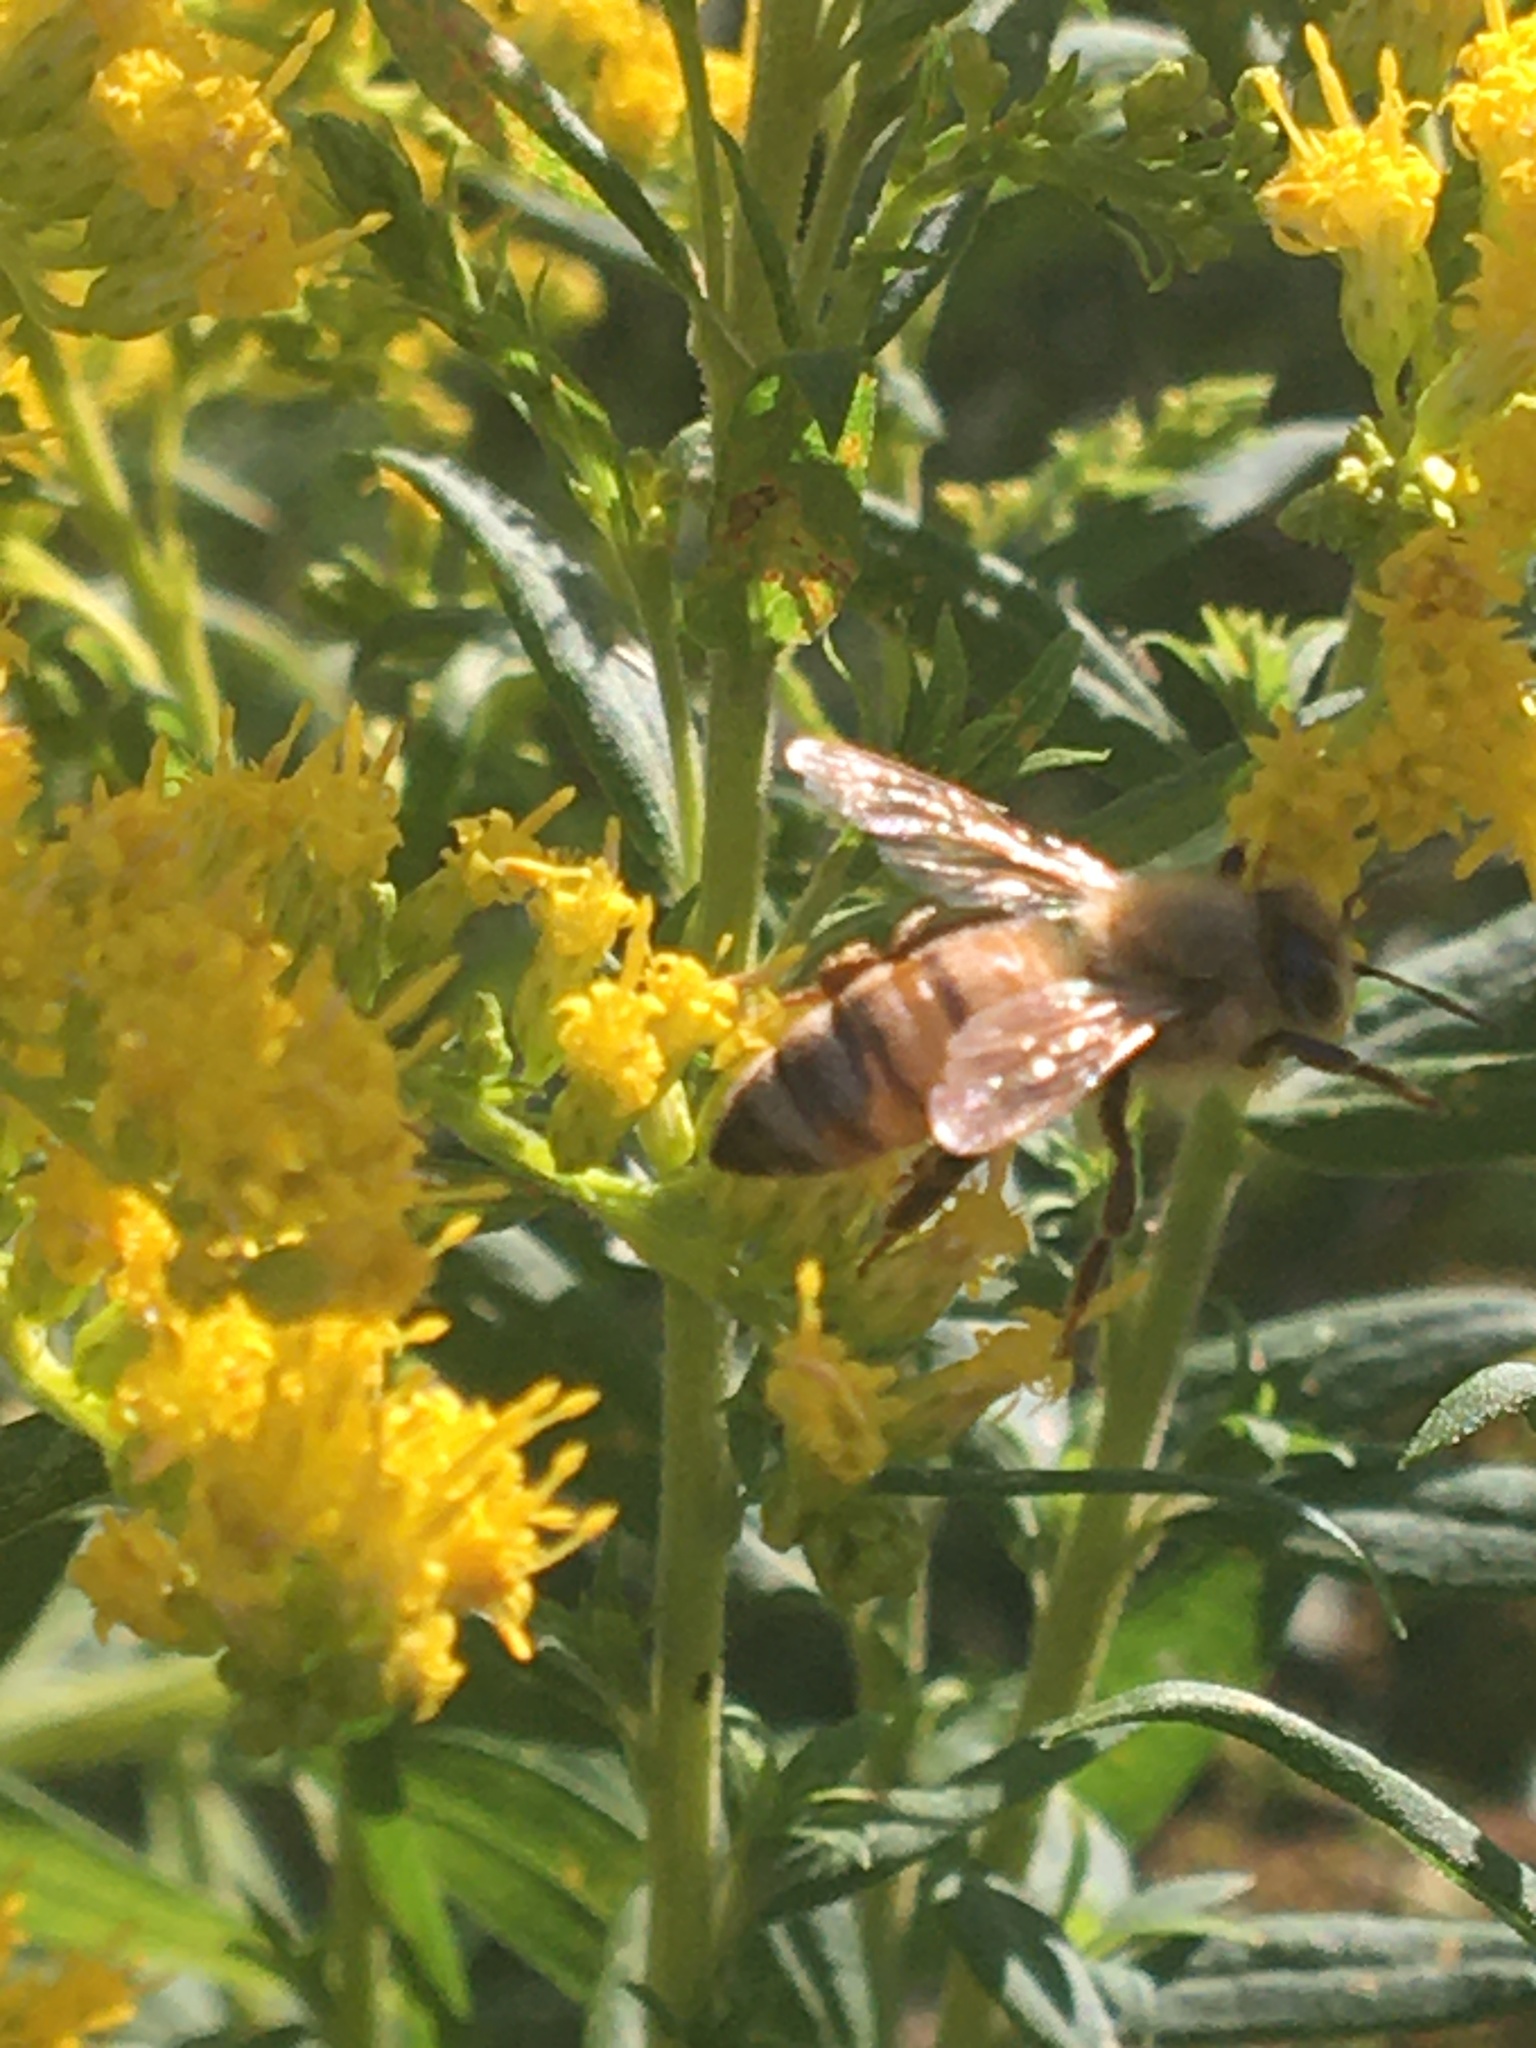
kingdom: Animalia
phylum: Arthropoda
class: Insecta
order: Hymenoptera
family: Apidae
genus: Apis
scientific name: Apis mellifera
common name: Honey bee
